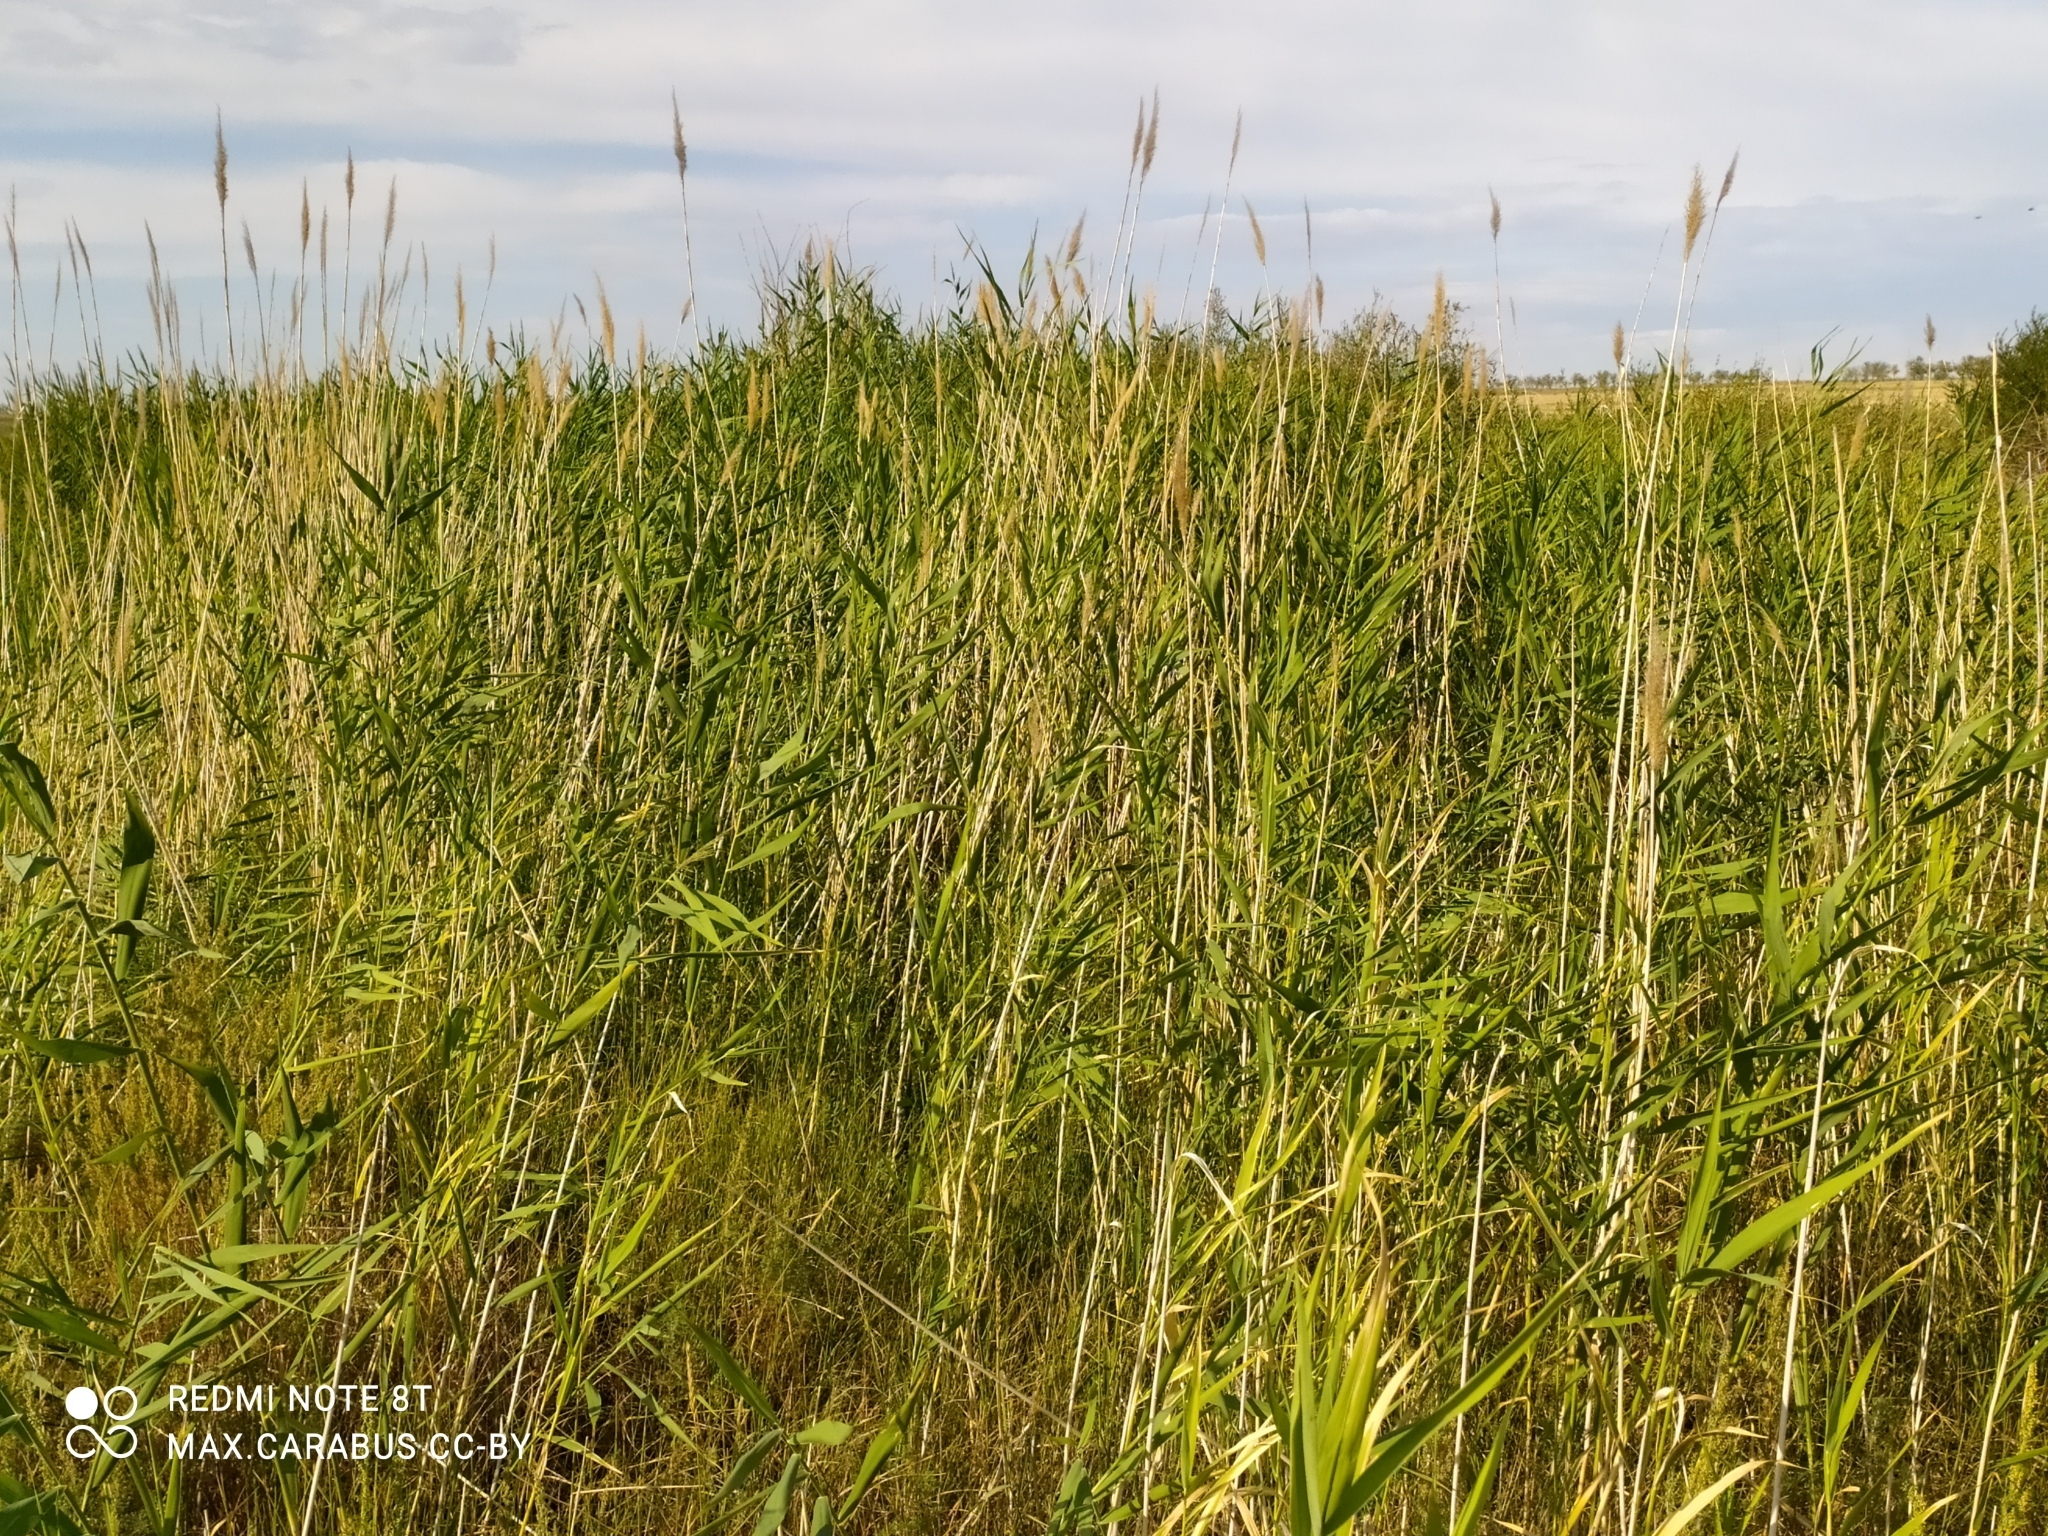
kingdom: Plantae
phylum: Tracheophyta
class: Liliopsida
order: Poales
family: Poaceae
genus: Phragmites
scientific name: Phragmites australis
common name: Common reed
